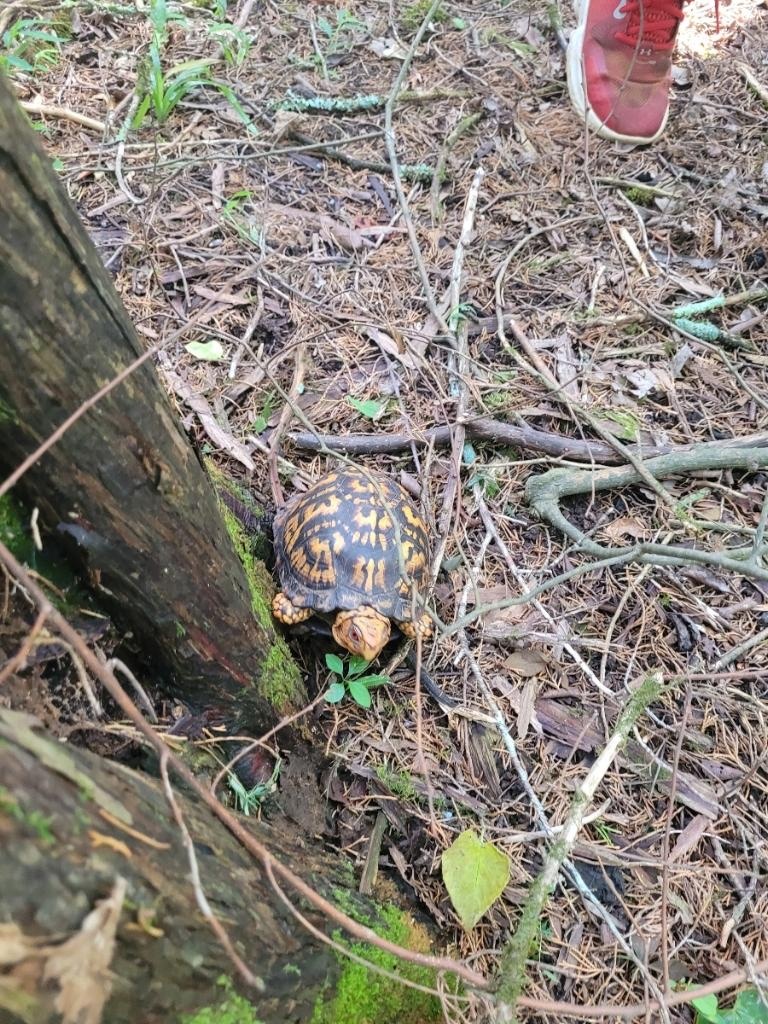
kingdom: Animalia
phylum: Chordata
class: Testudines
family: Emydidae
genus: Terrapene
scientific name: Terrapene carolina
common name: Common box turtle
